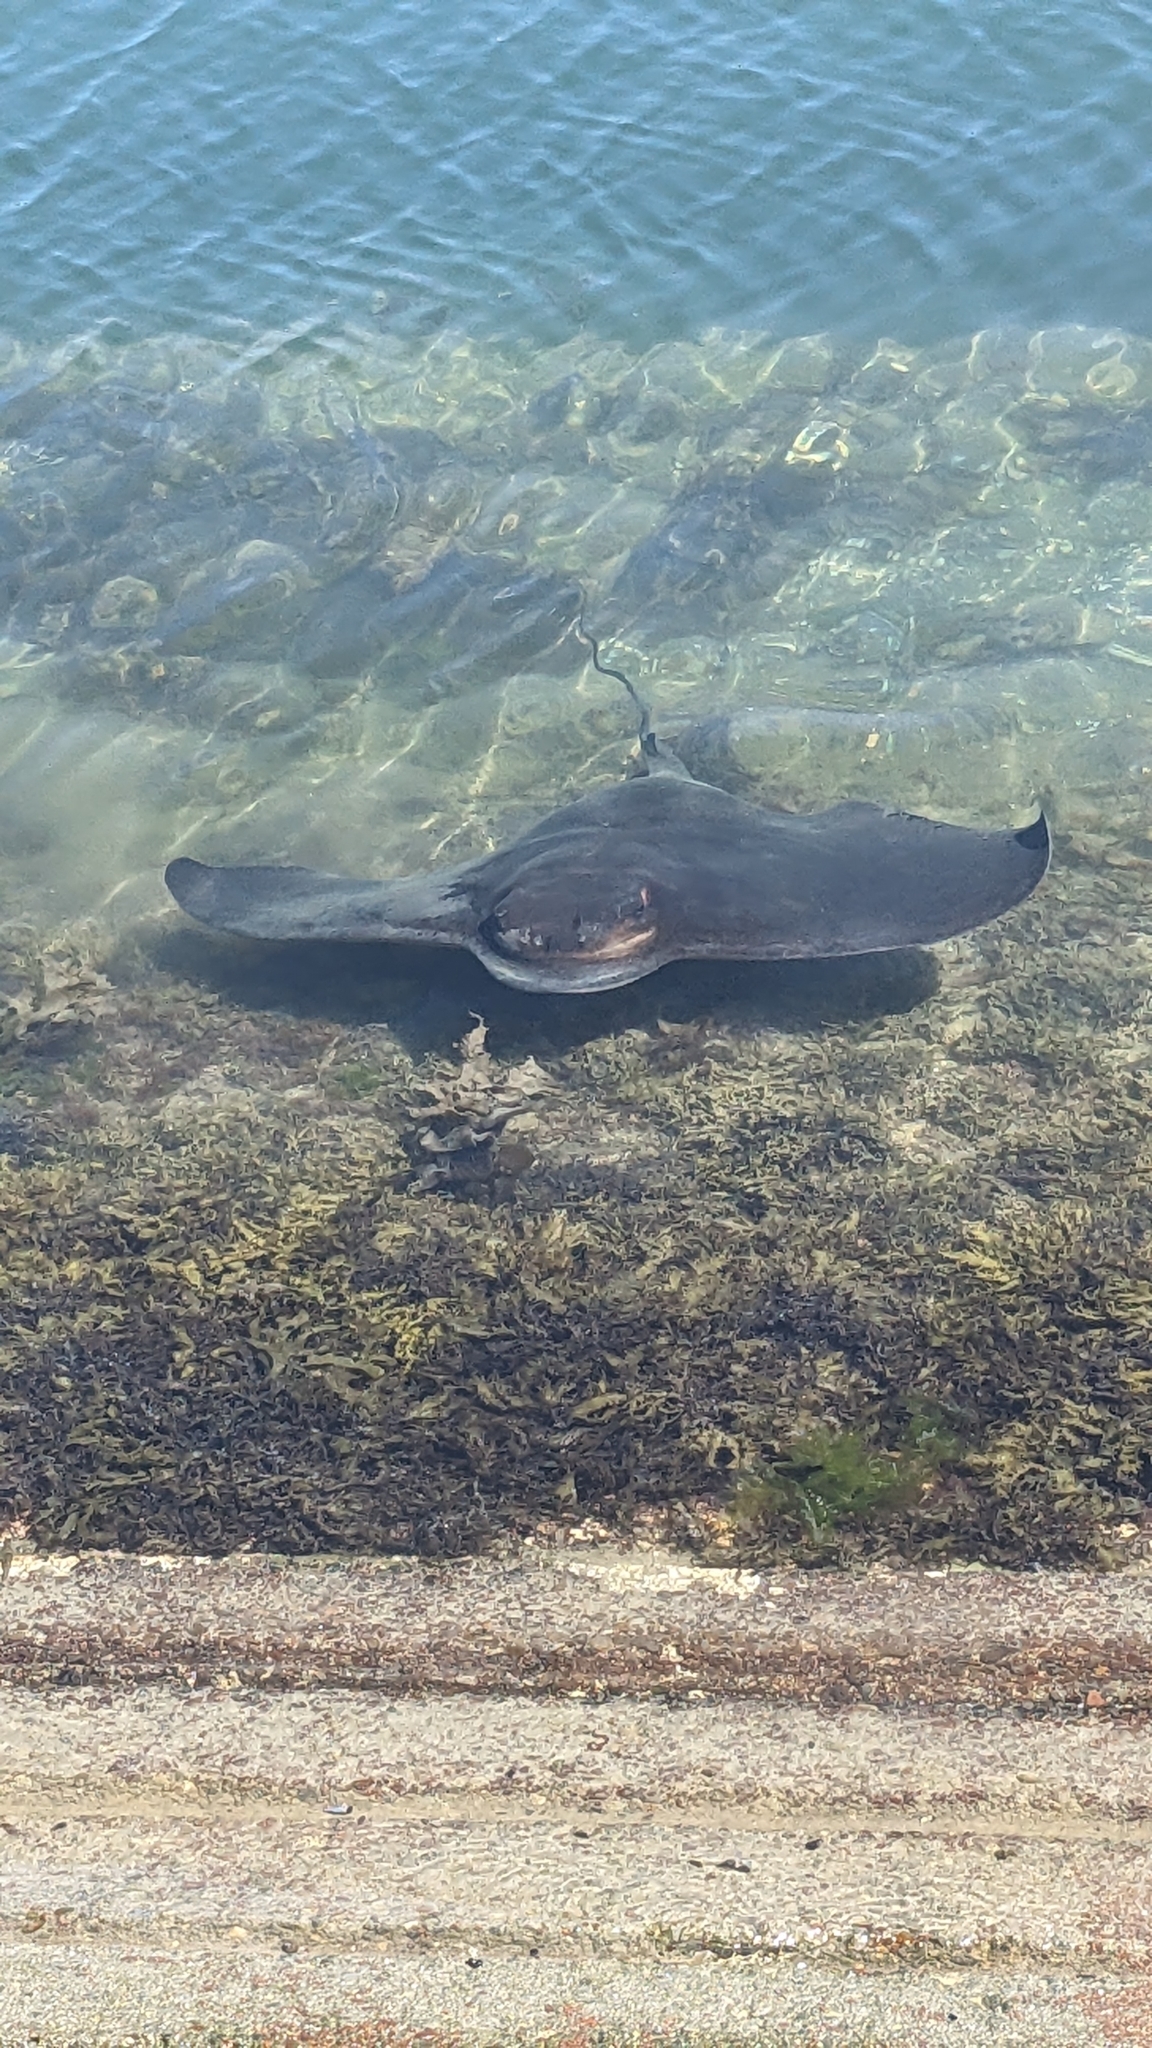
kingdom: Animalia
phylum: Chordata
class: Elasmobranchii
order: Myliobatiformes
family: Myliobatidae
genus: Myliobatis
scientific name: Myliobatis tenuicaudatus
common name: Eagle ray
